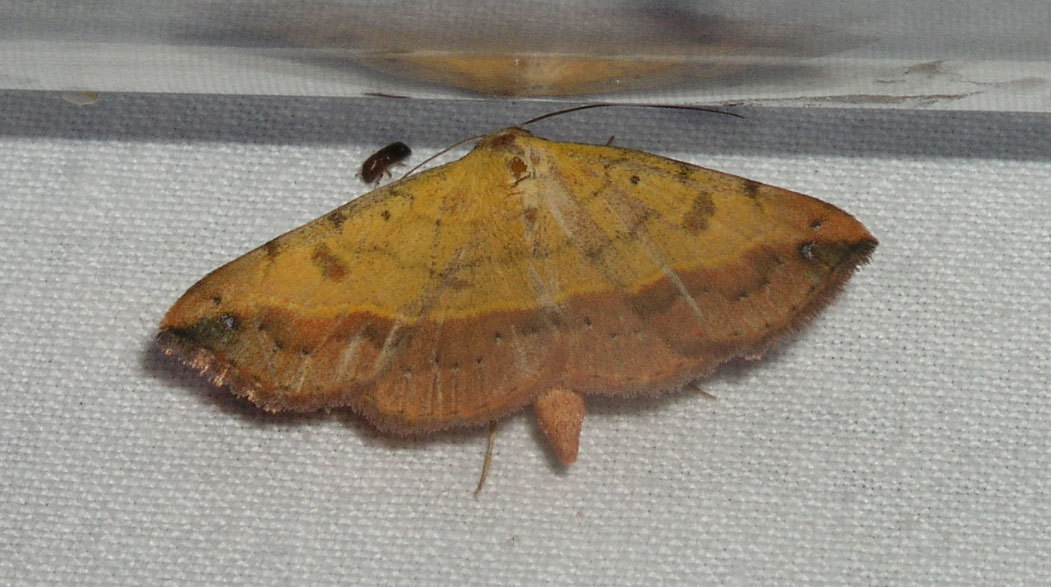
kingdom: Animalia
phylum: Arthropoda
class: Insecta
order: Lepidoptera
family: Erebidae
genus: Hemeroplanis
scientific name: Hemeroplanis scopulepes
